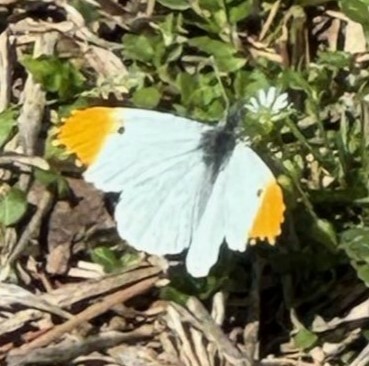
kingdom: Animalia
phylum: Arthropoda
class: Insecta
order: Lepidoptera
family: Pieridae
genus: Anthocharis
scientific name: Anthocharis midea
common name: Falcate orangetip
